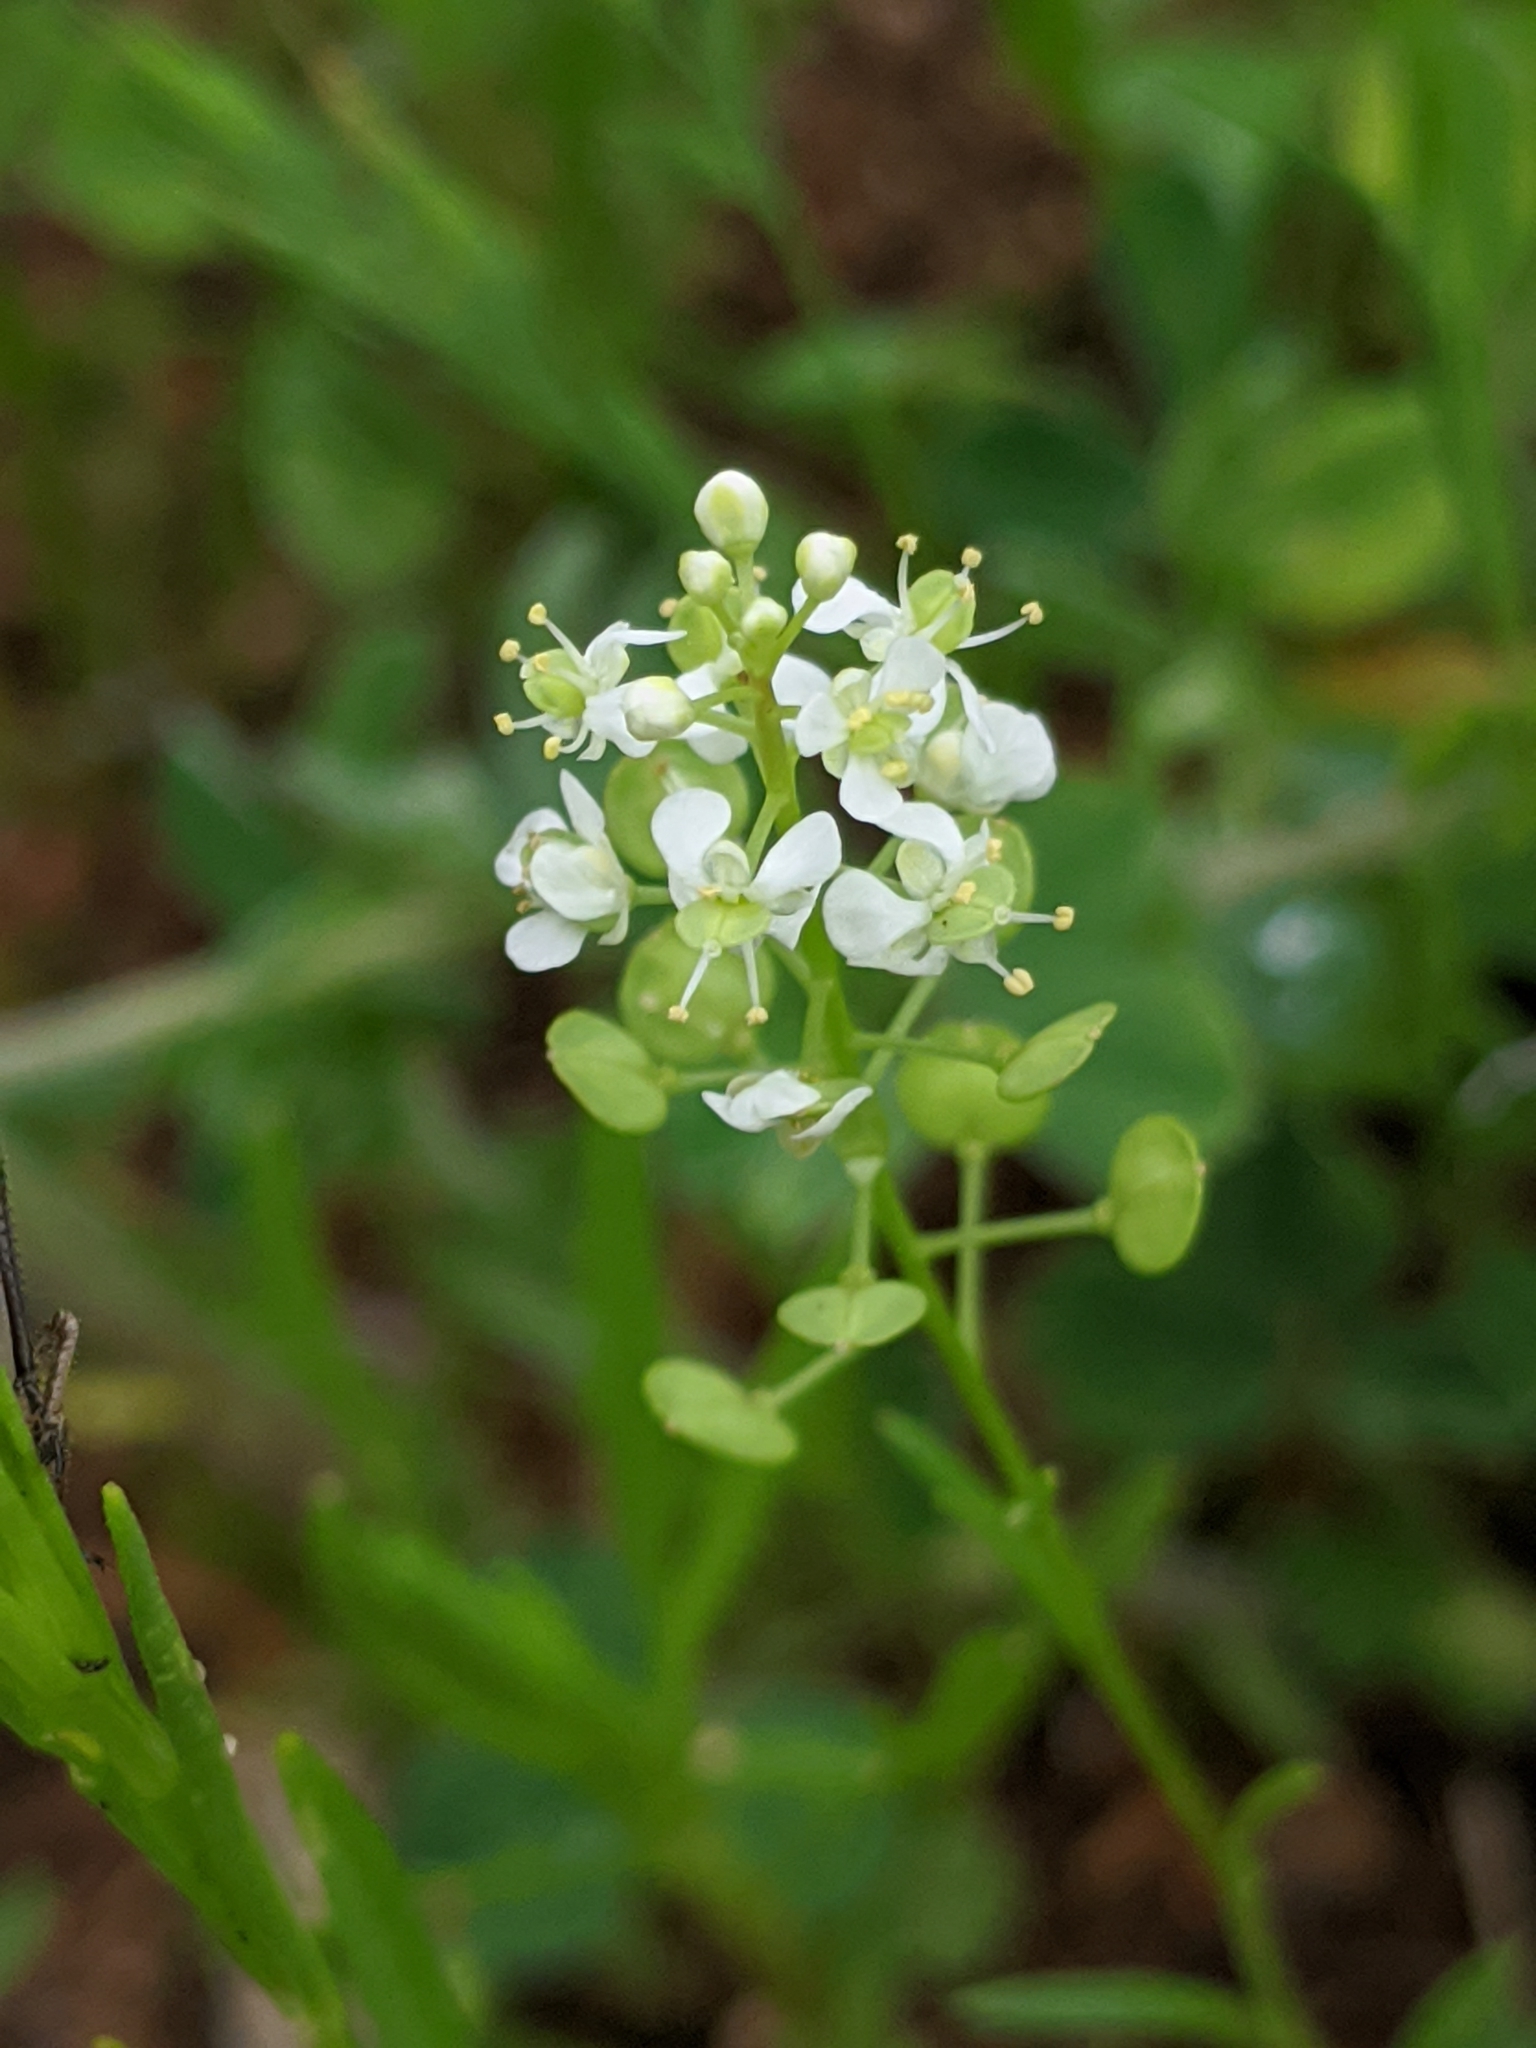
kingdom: Plantae
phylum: Tracheophyta
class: Magnoliopsida
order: Brassicales
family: Brassicaceae
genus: Lepidium
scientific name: Lepidium virginicum
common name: Least pepperwort
